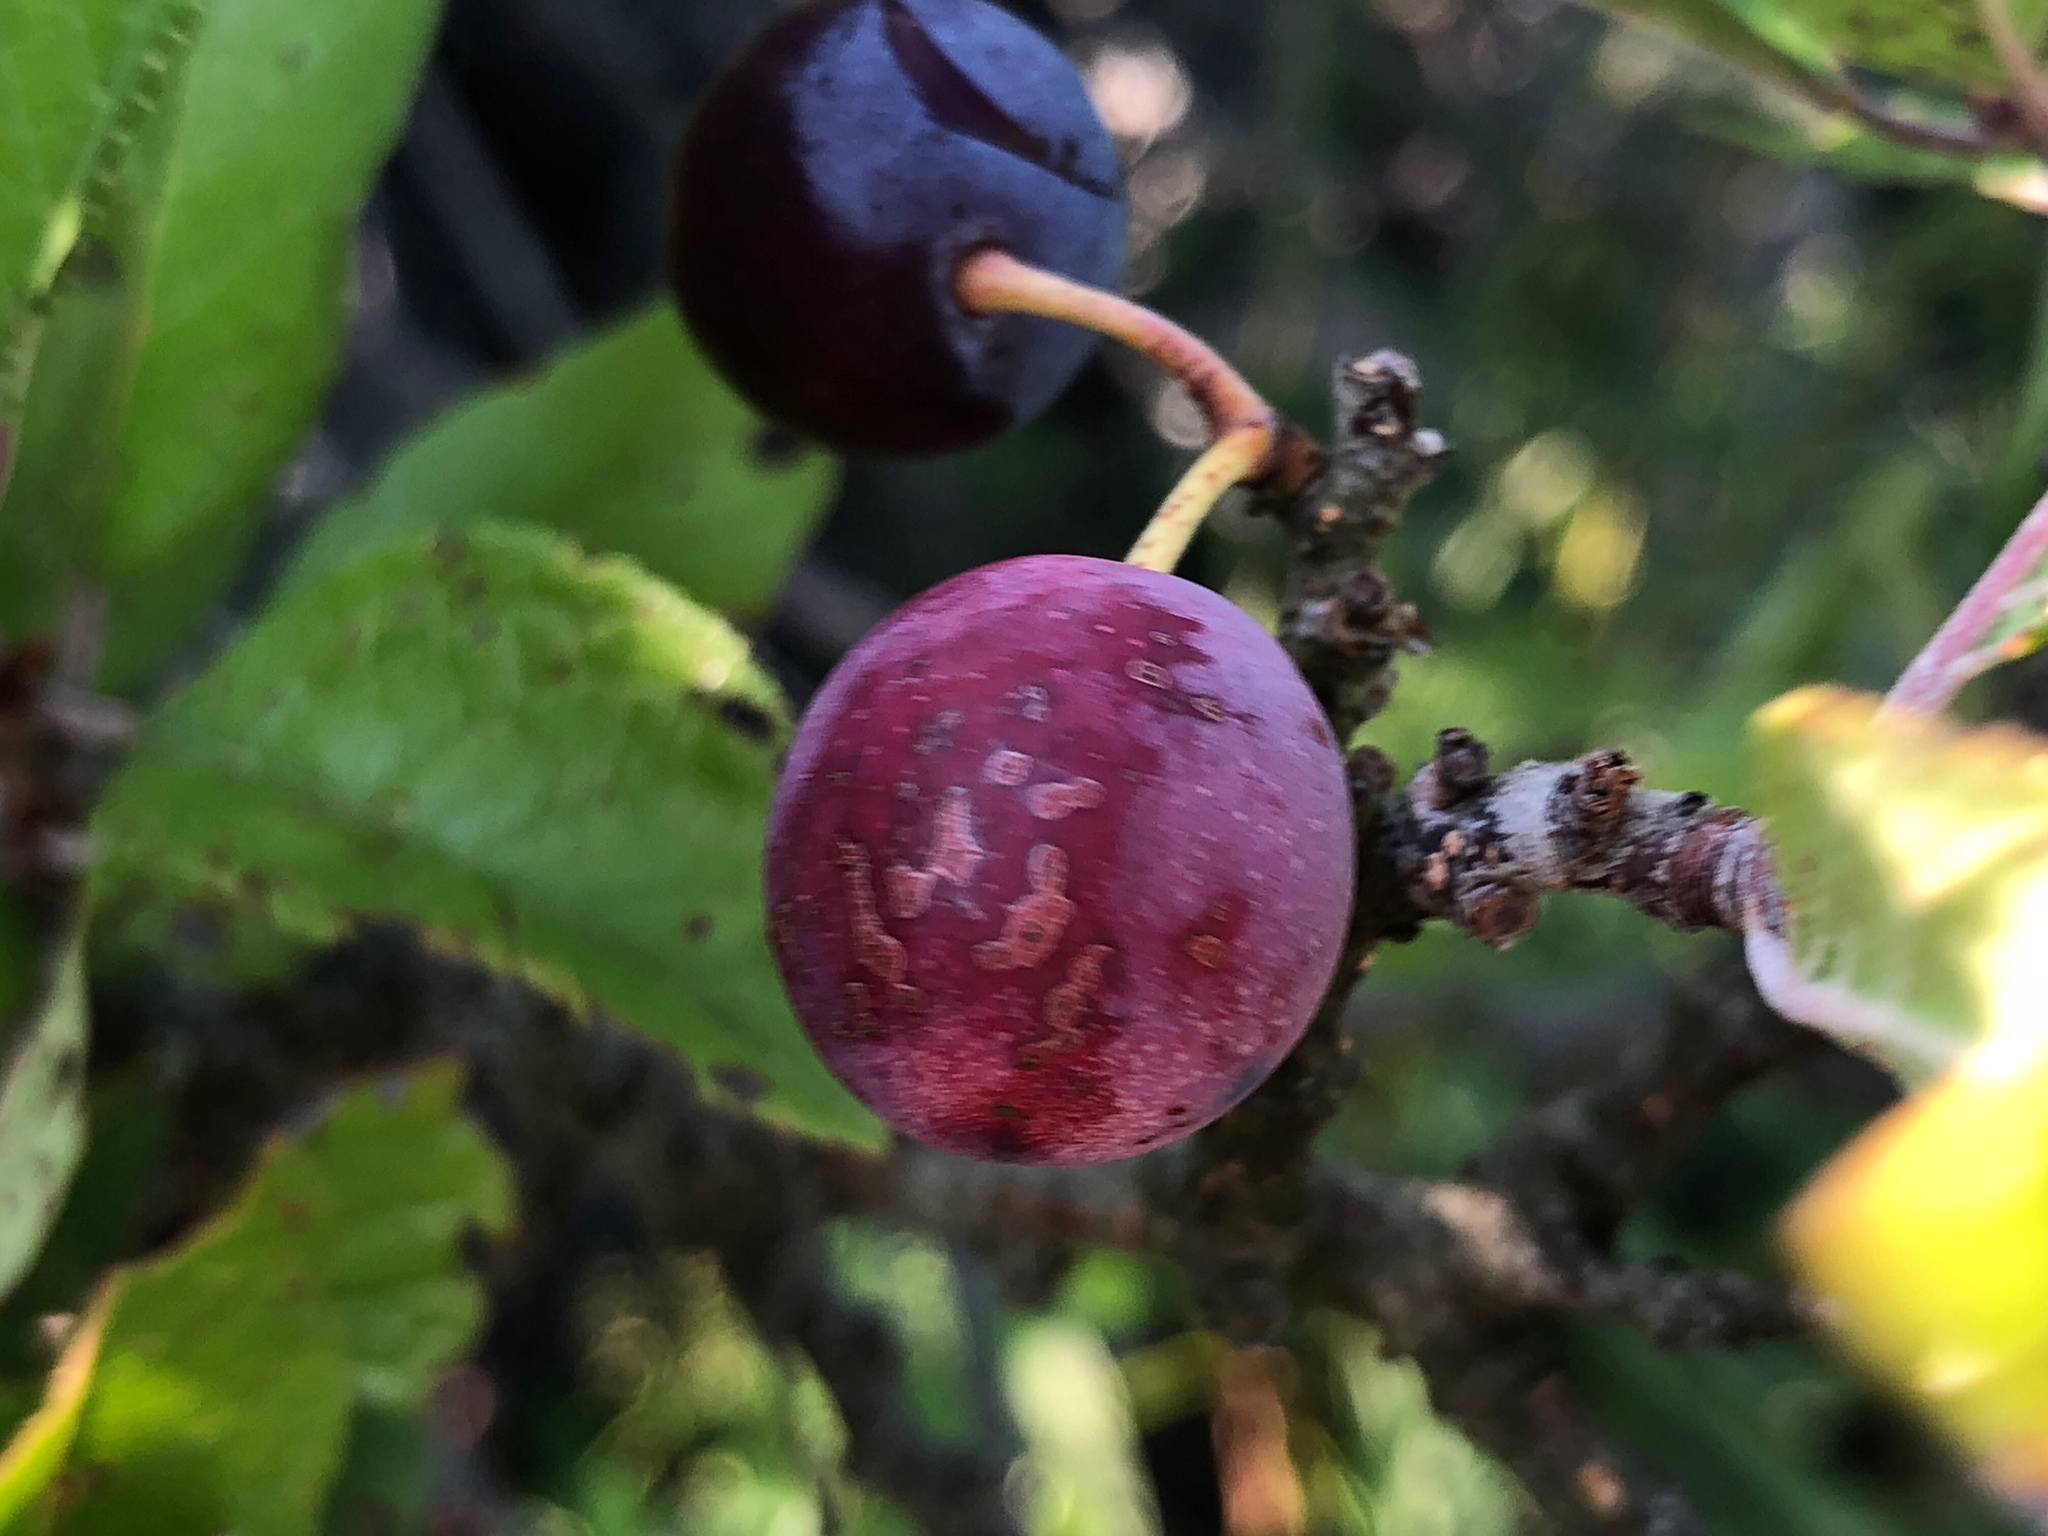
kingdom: Plantae
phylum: Tracheophyta
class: Magnoliopsida
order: Rosales
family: Rosaceae
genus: Prunus
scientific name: Prunus maritima
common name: Beach plum
